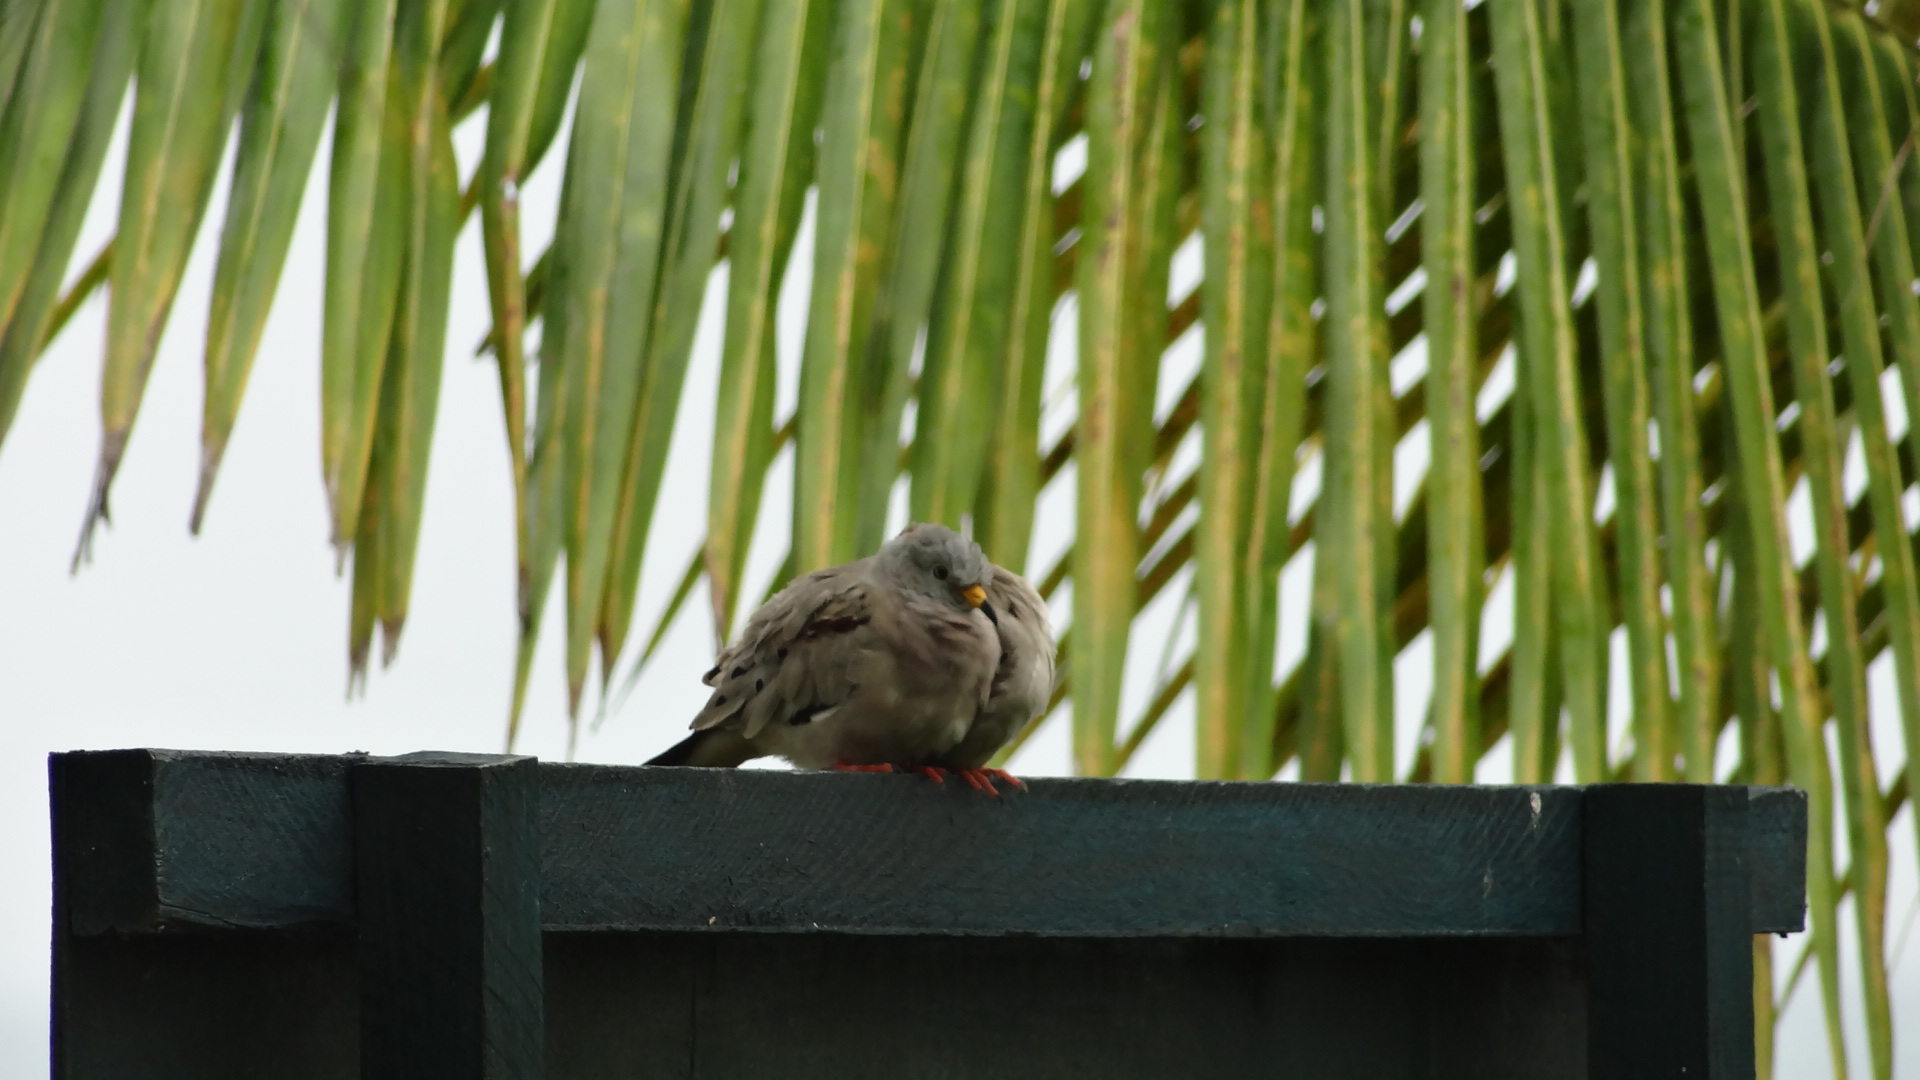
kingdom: Animalia
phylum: Chordata
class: Aves
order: Columbiformes
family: Columbidae
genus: Columbina
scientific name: Columbina cruziana
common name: Croaking ground dove
